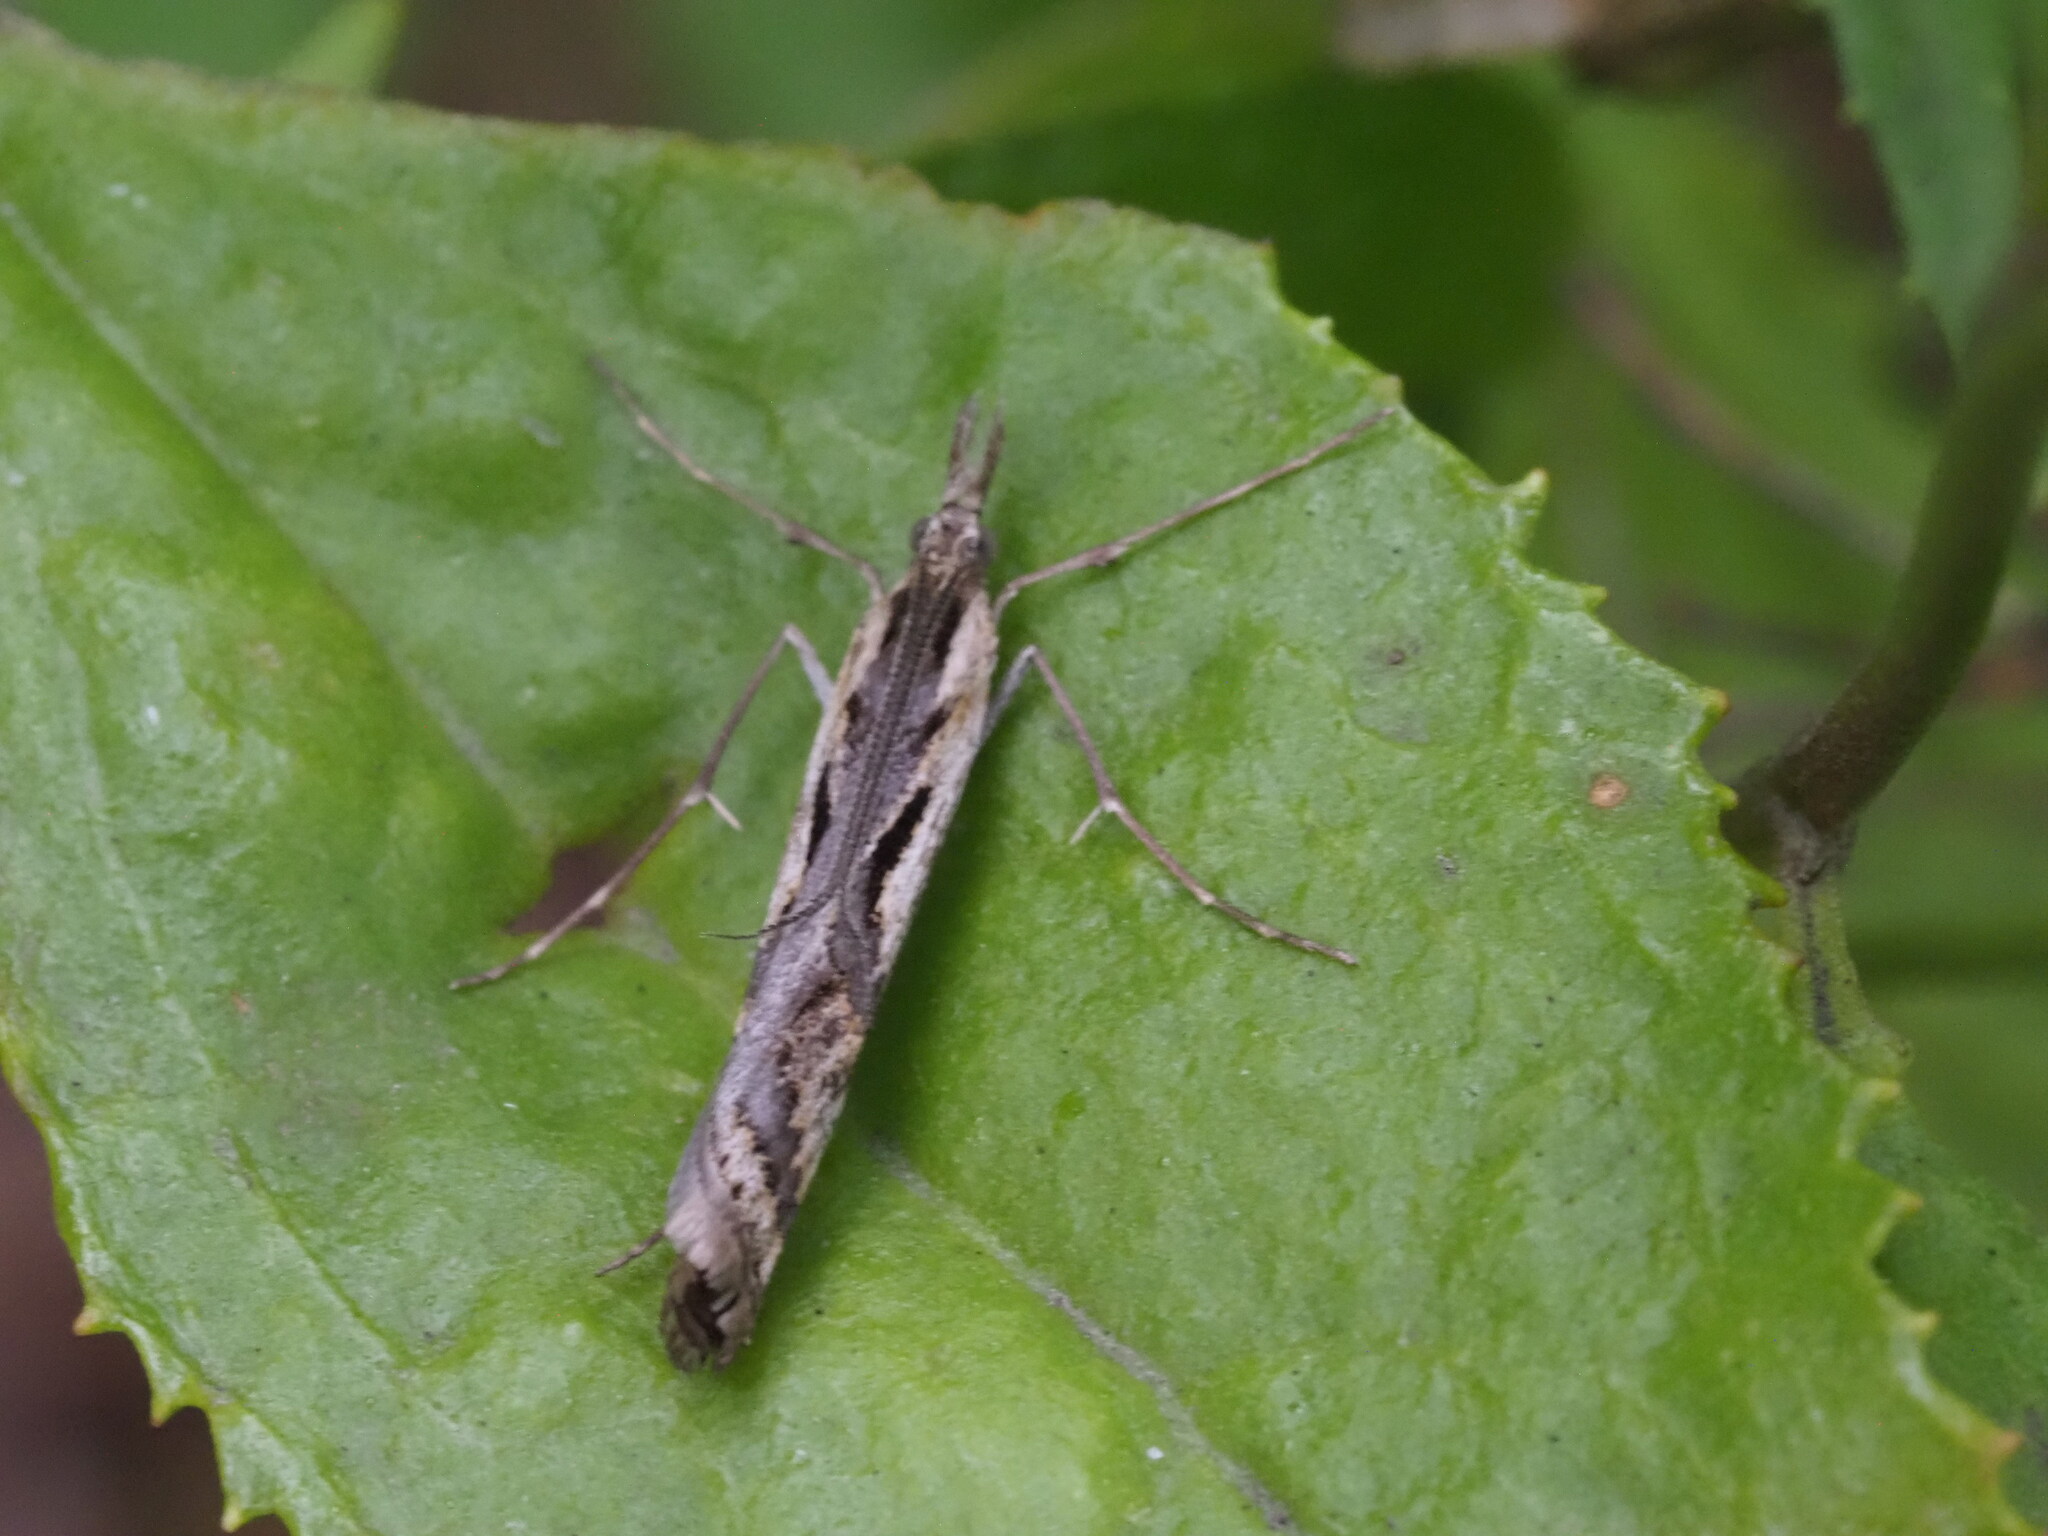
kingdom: Animalia
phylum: Arthropoda
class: Insecta
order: Lepidoptera
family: Crambidae
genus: Hednota
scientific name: Hednota pedionoma
